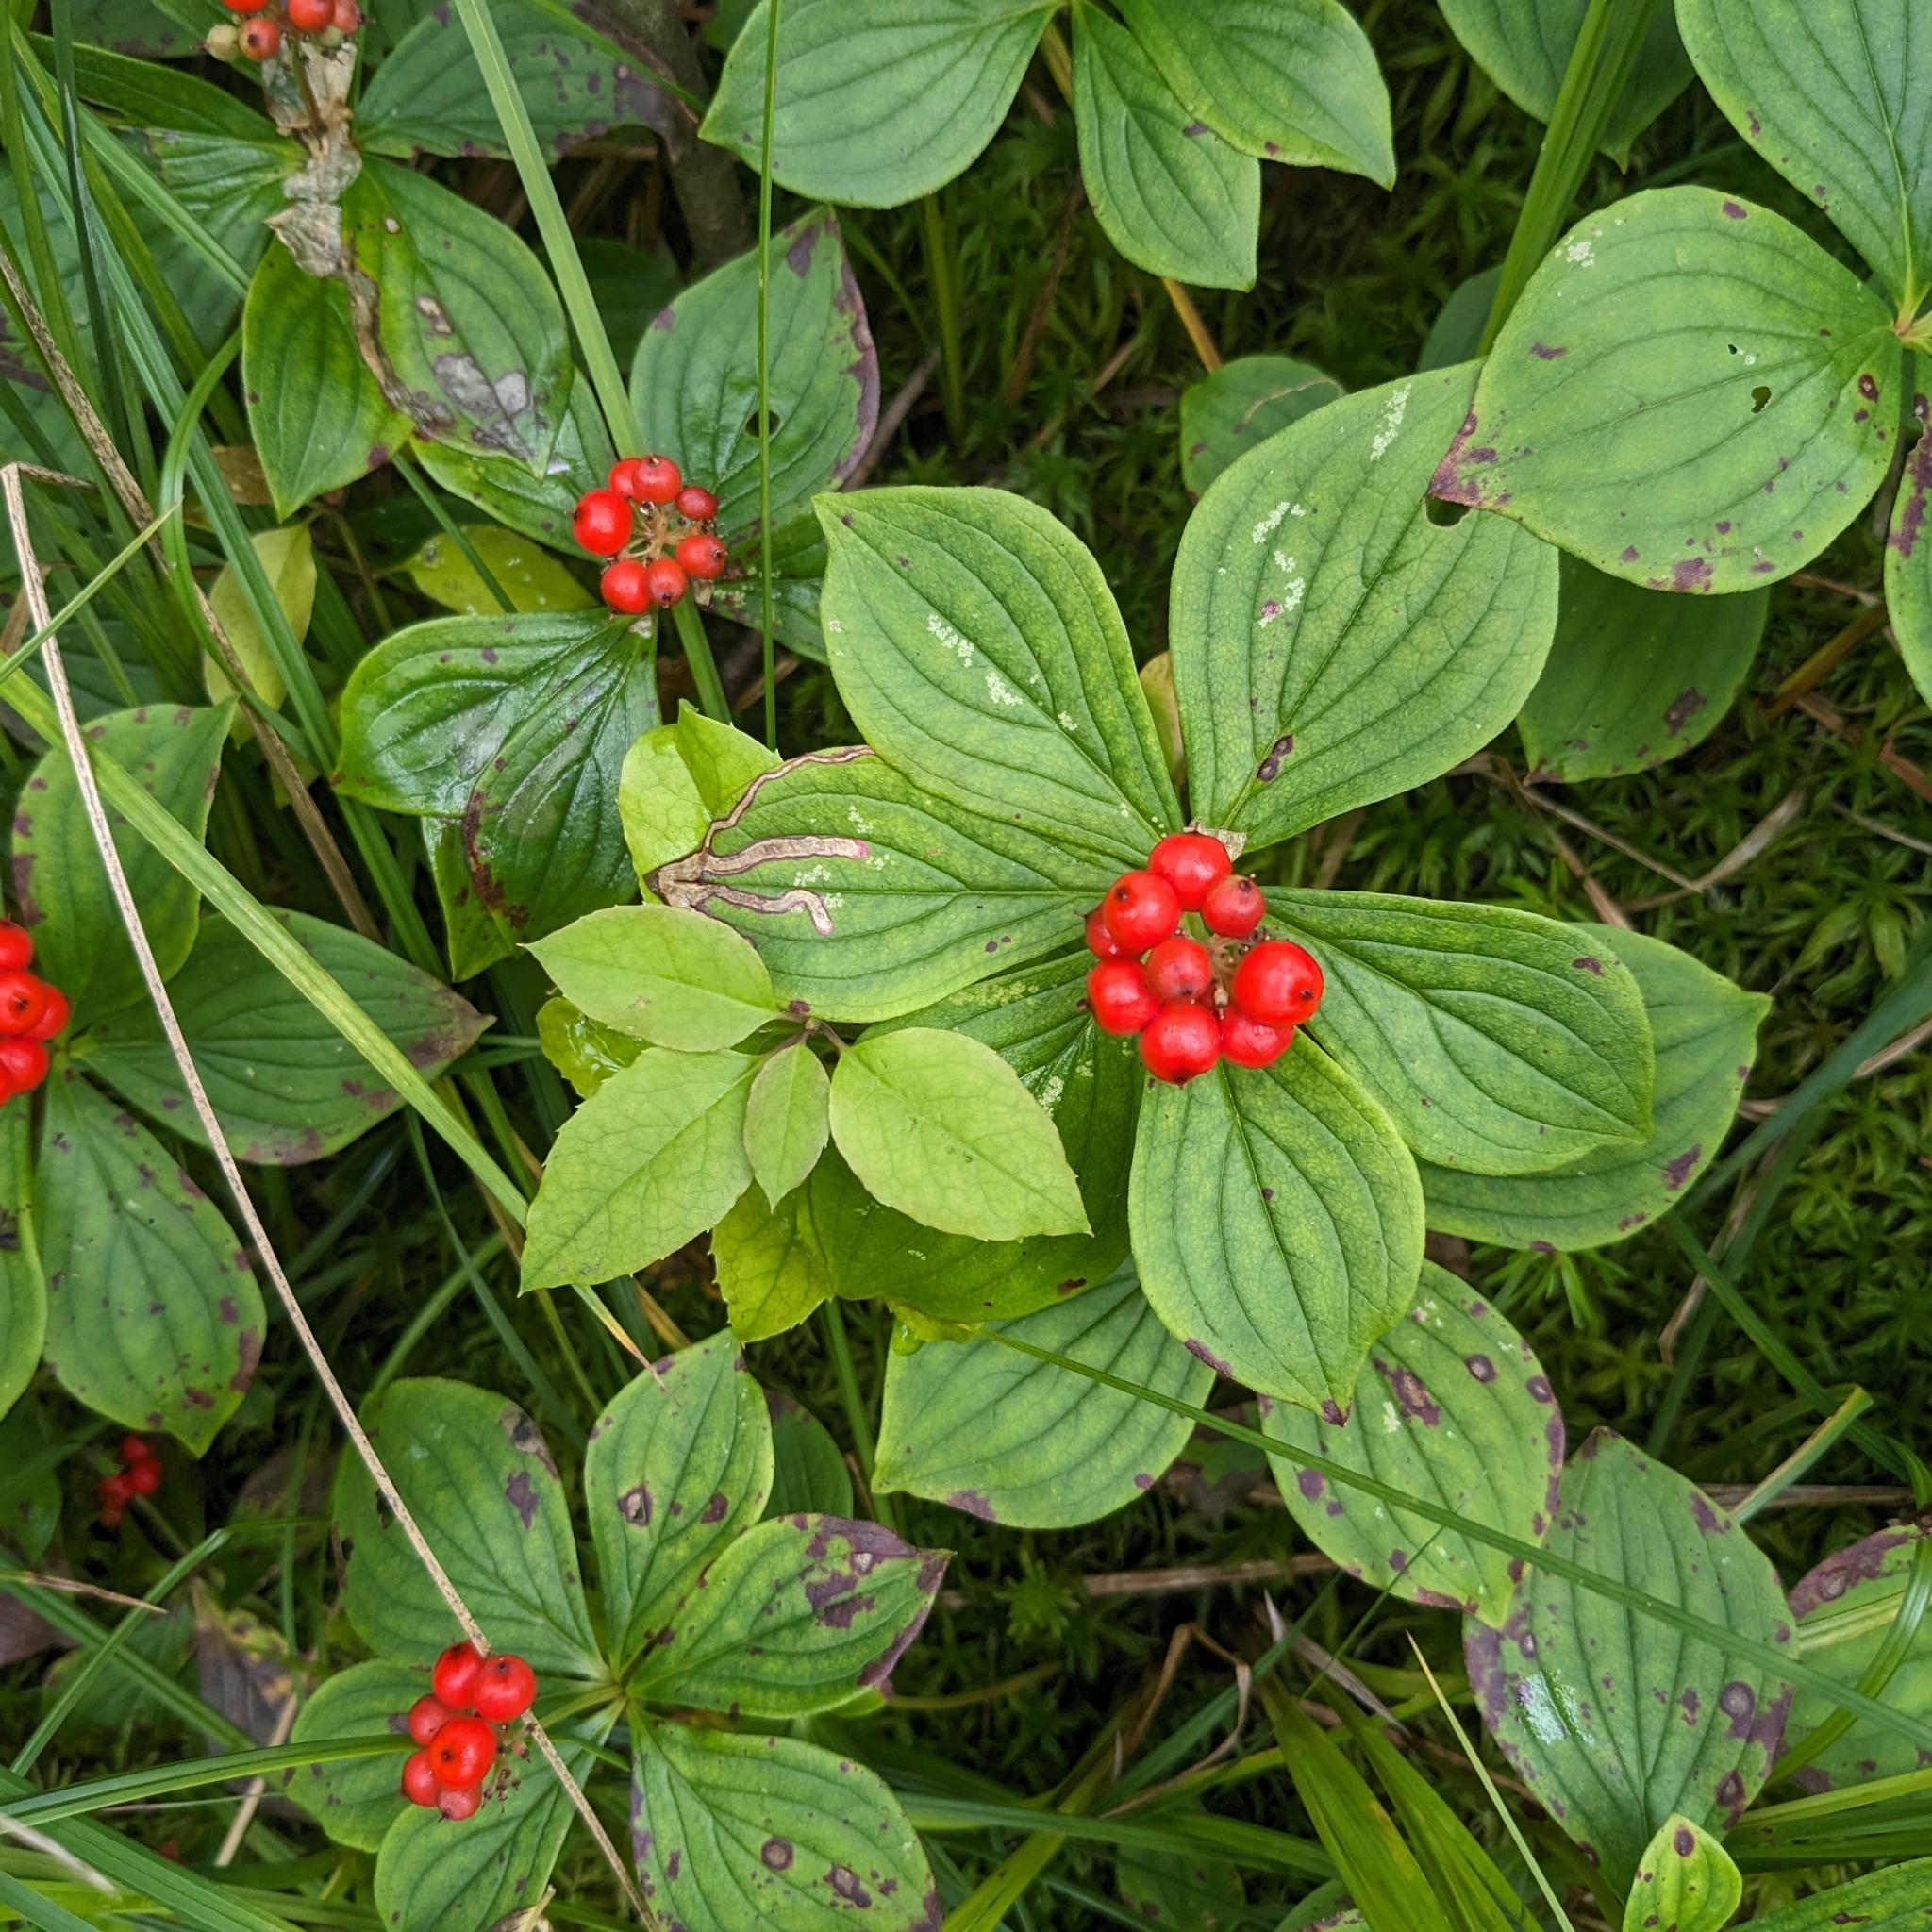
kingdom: Plantae
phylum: Tracheophyta
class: Magnoliopsida
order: Cornales
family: Cornaceae
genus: Cornus
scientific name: Cornus canadensis
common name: Creeping dogwood
